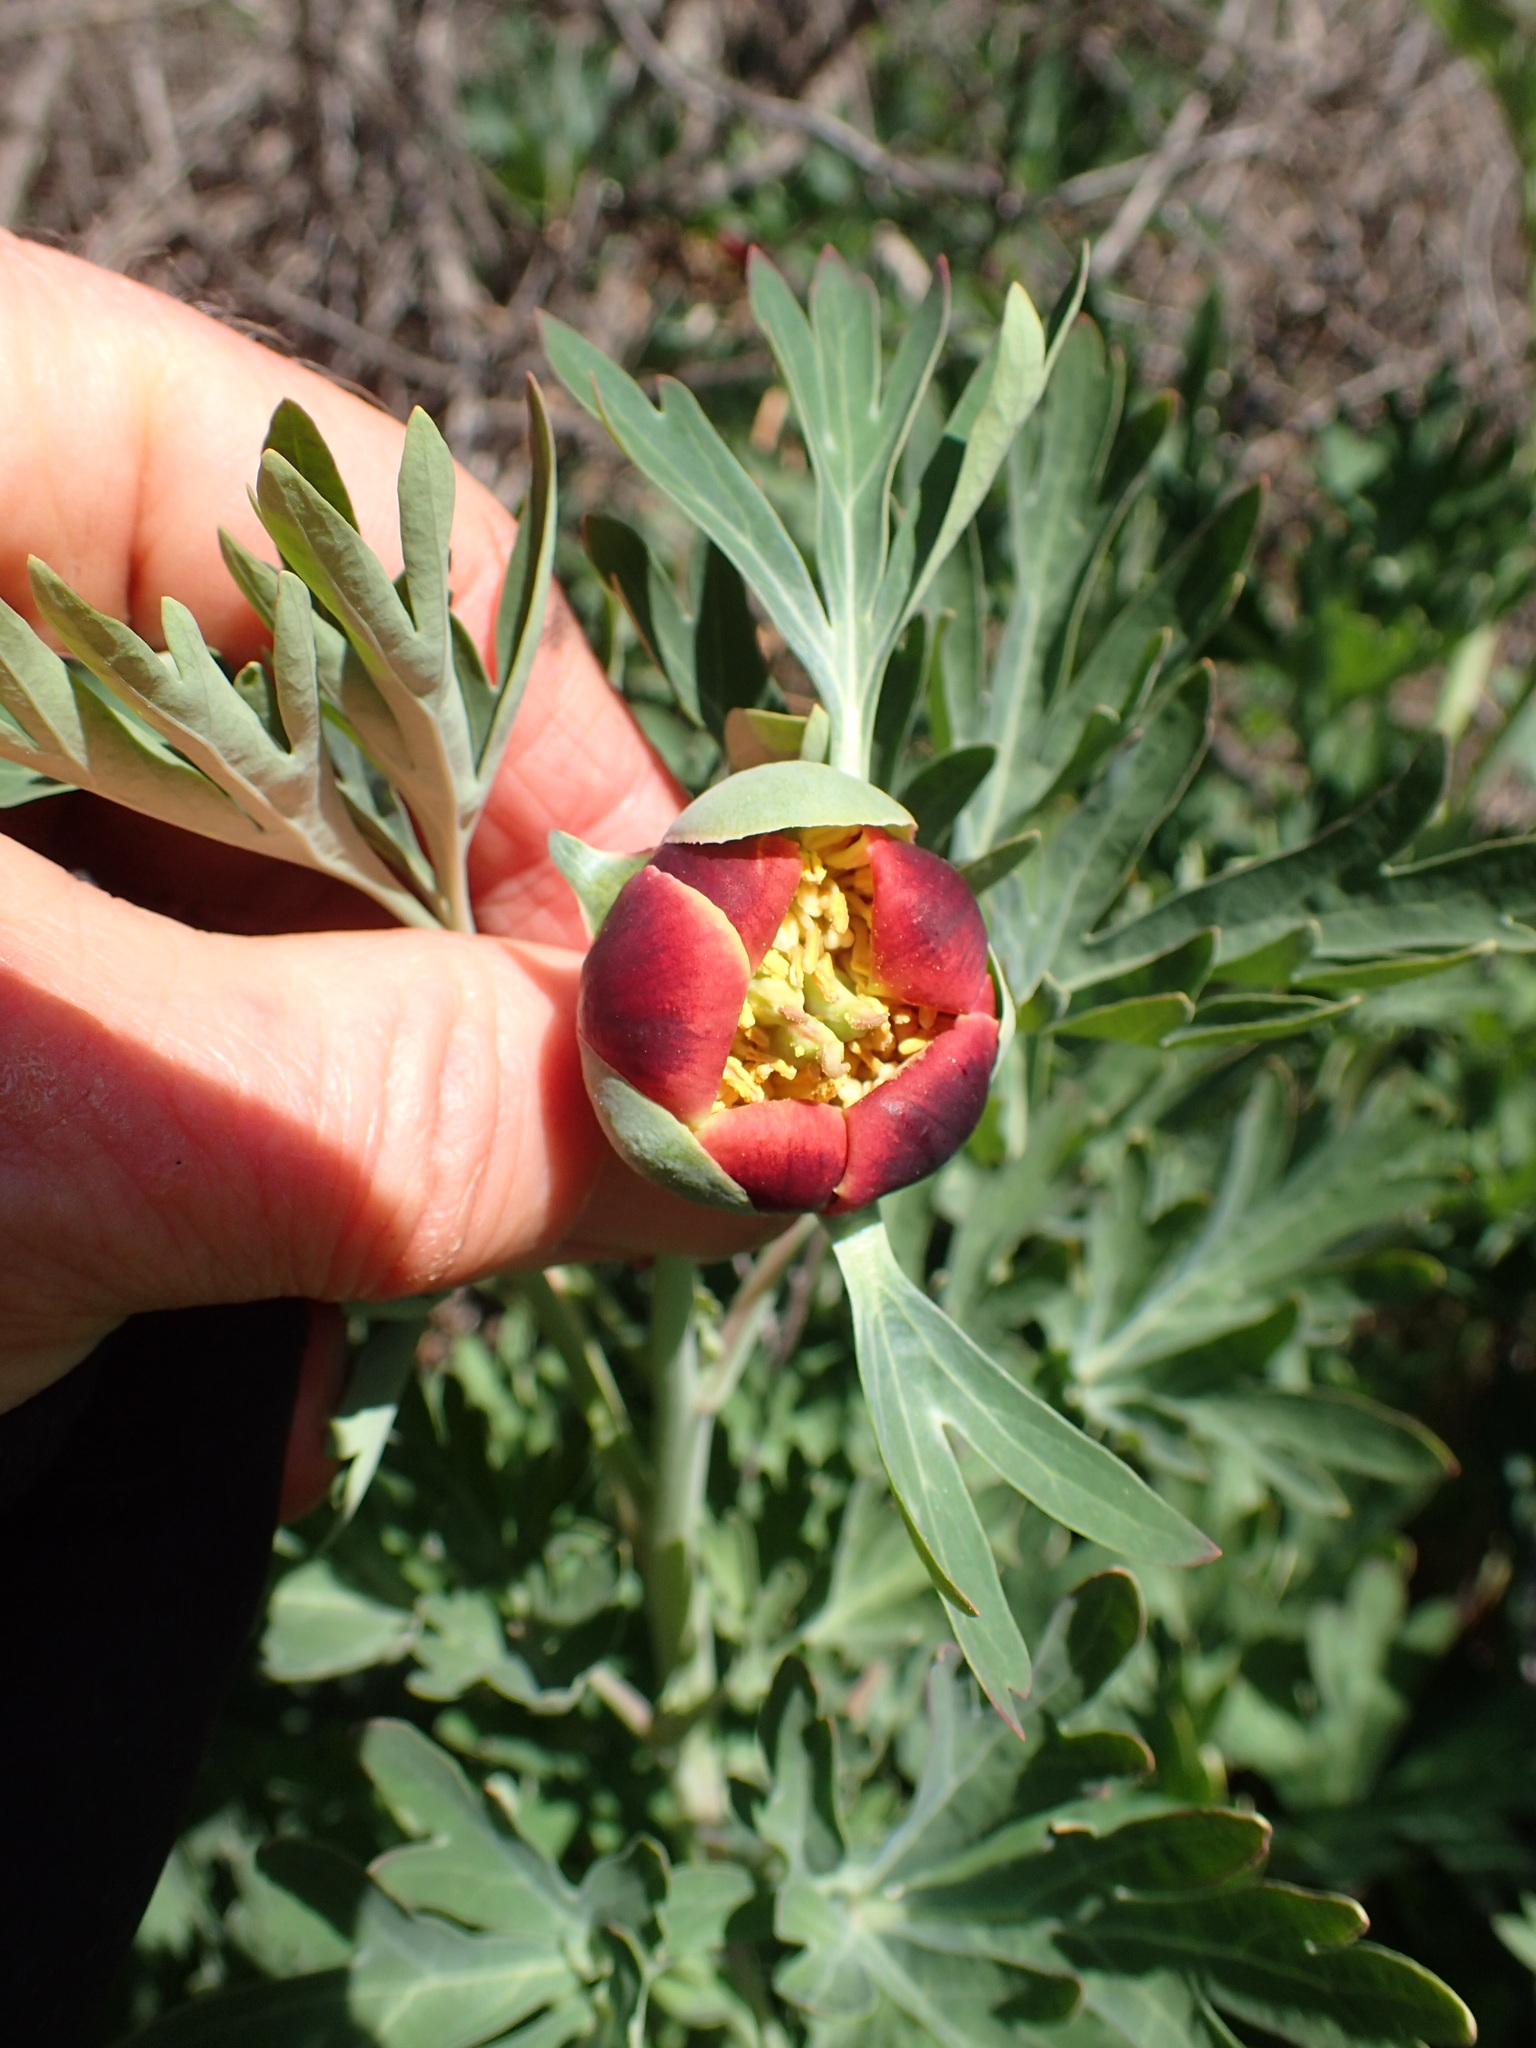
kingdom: Plantae
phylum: Tracheophyta
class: Magnoliopsida
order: Saxifragales
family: Paeoniaceae
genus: Paeonia
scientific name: Paeonia californica
